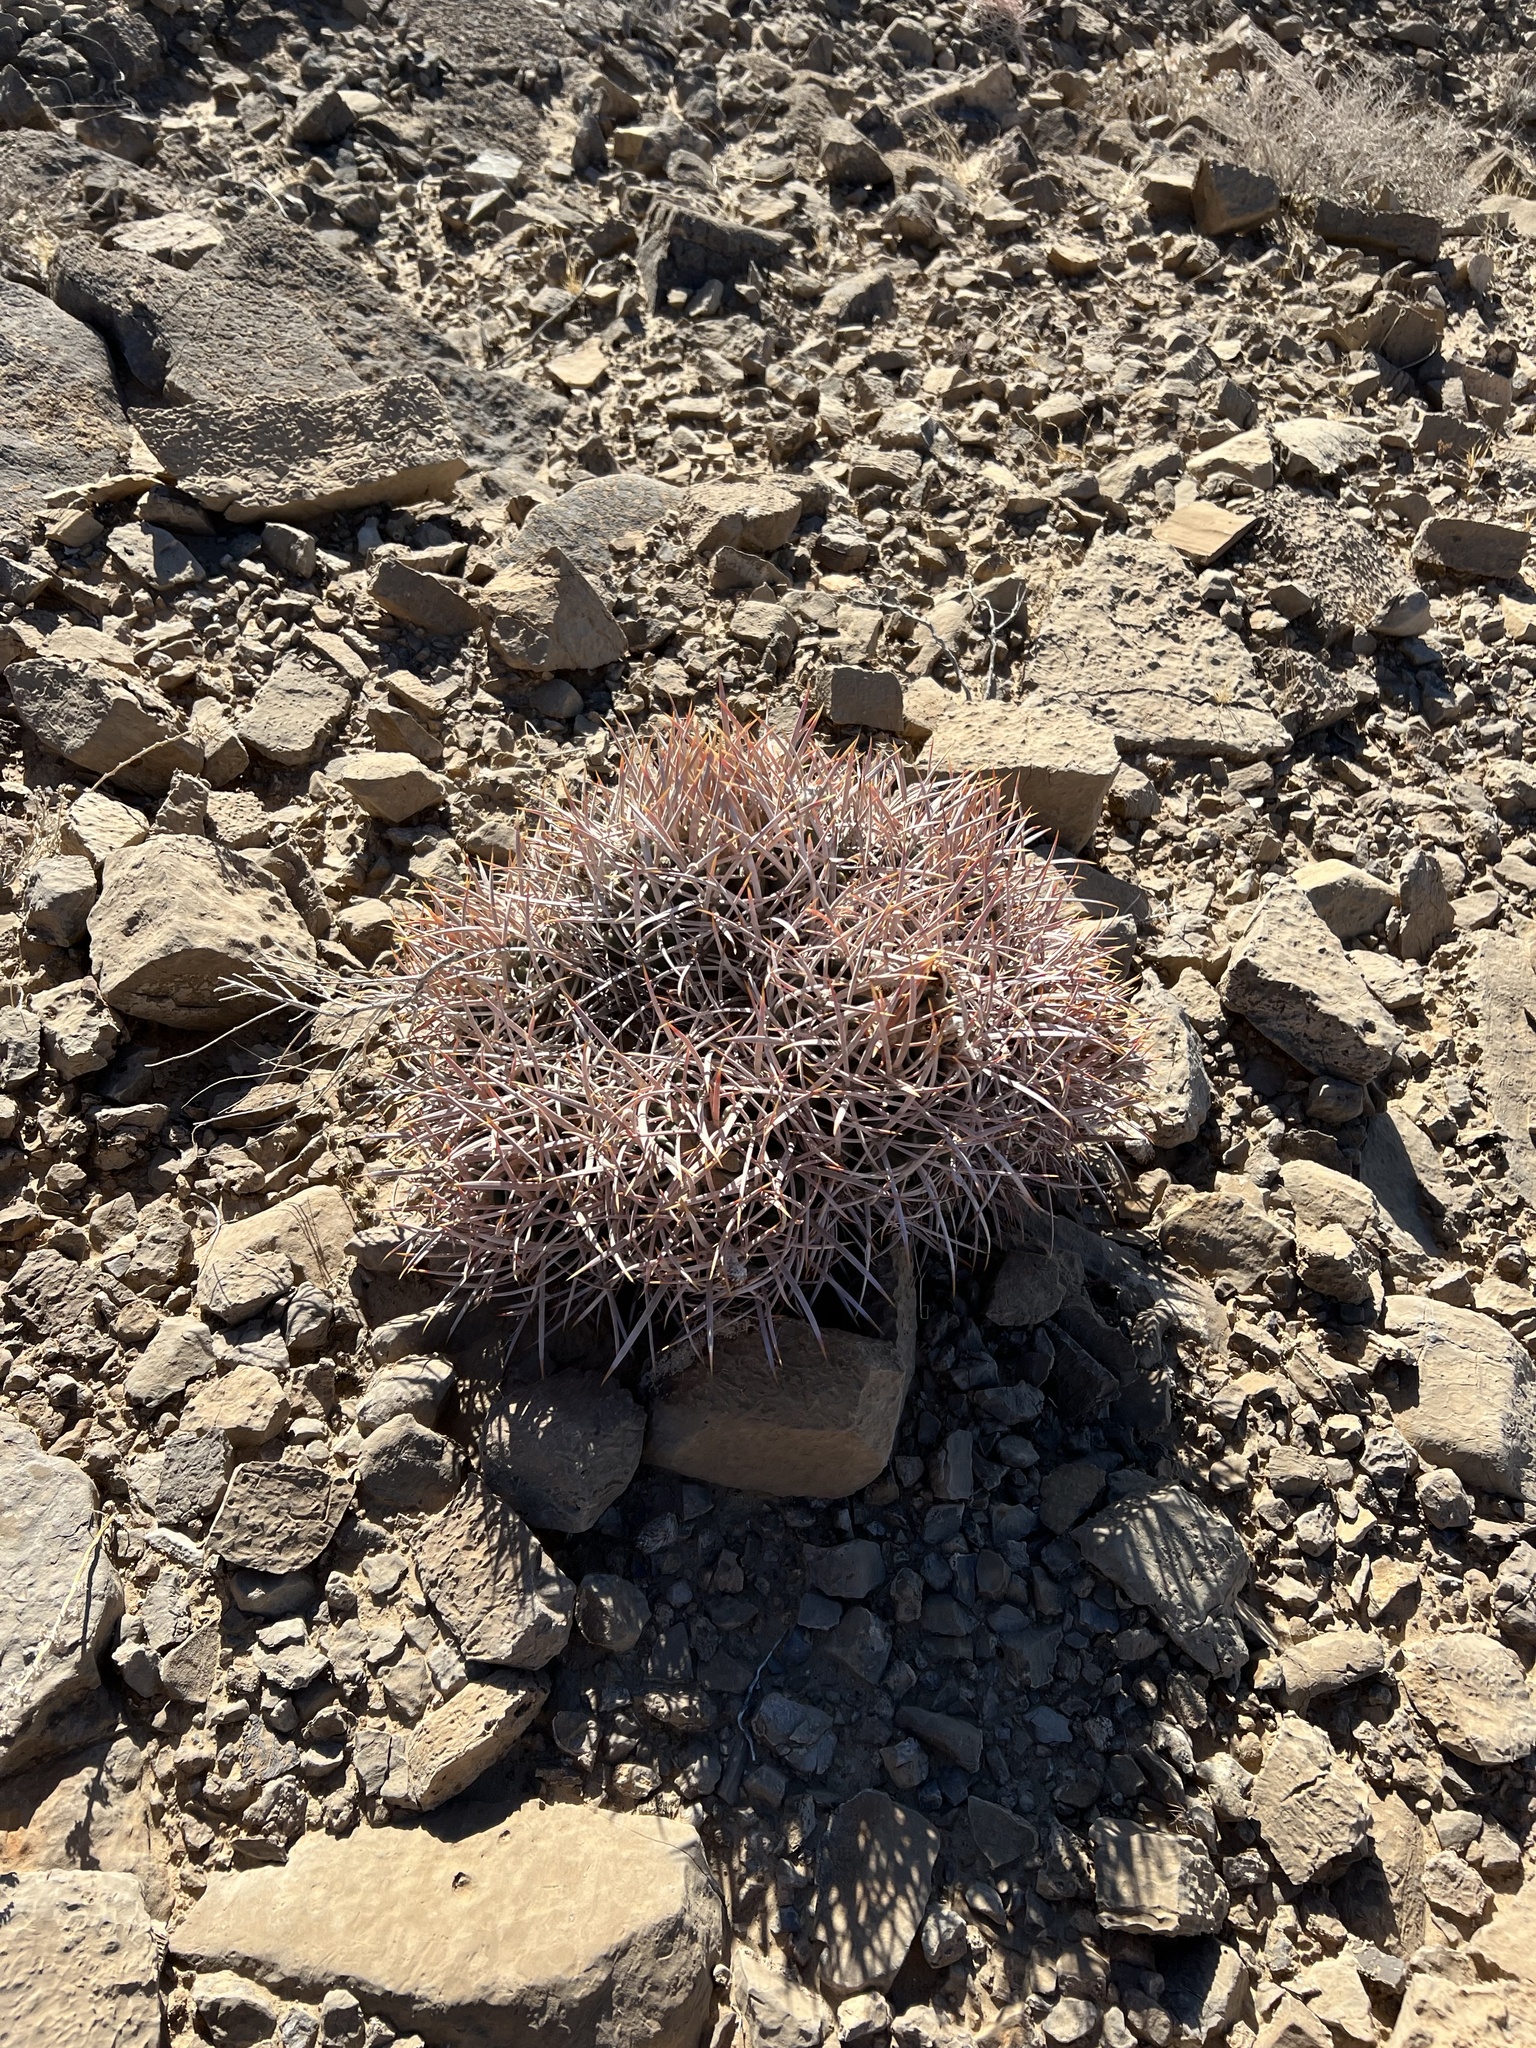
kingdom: Plantae
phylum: Tracheophyta
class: Magnoliopsida
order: Caryophyllales
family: Cactaceae
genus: Echinocactus
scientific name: Echinocactus polycephalus
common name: Cottontop cactus
